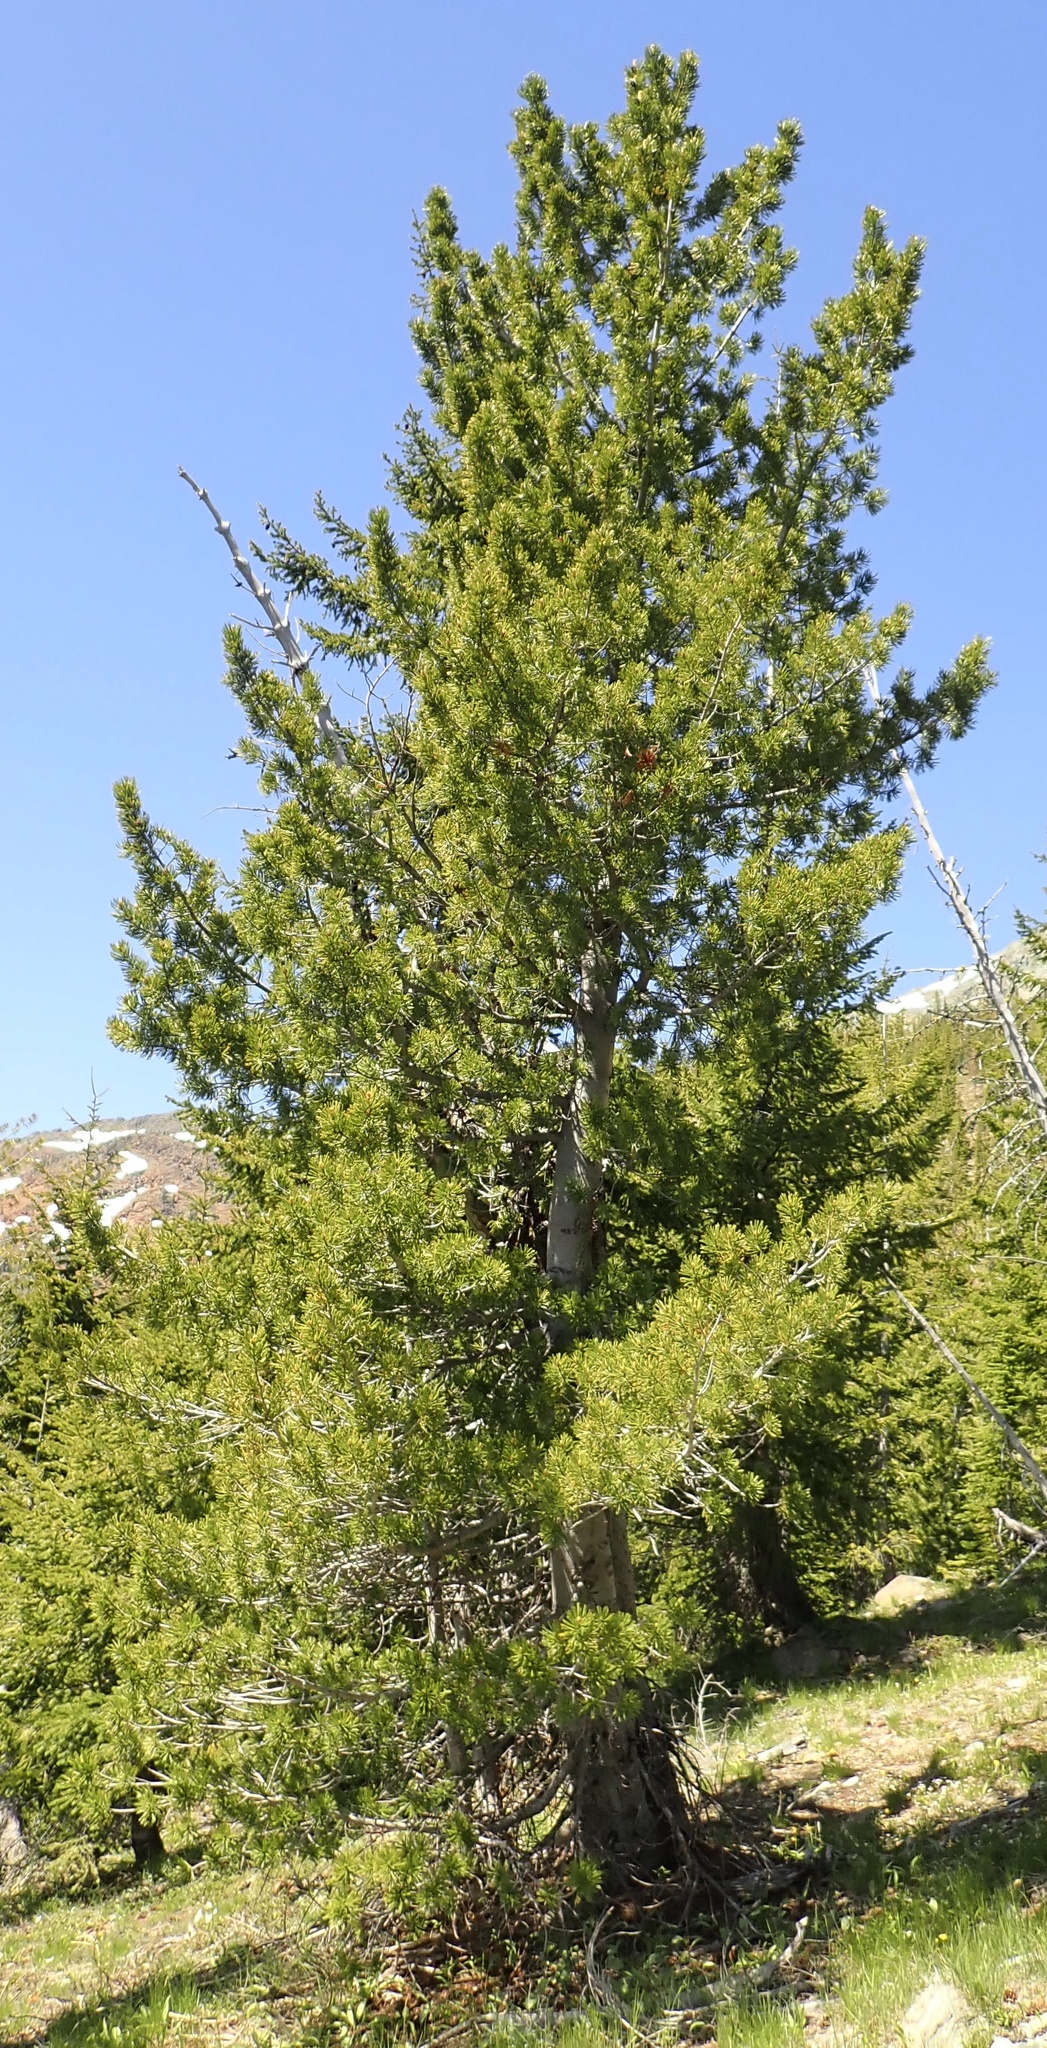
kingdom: Plantae
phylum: Tracheophyta
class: Pinopsida
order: Pinales
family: Pinaceae
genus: Pinus
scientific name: Pinus albicaulis
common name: Whitebark pine
